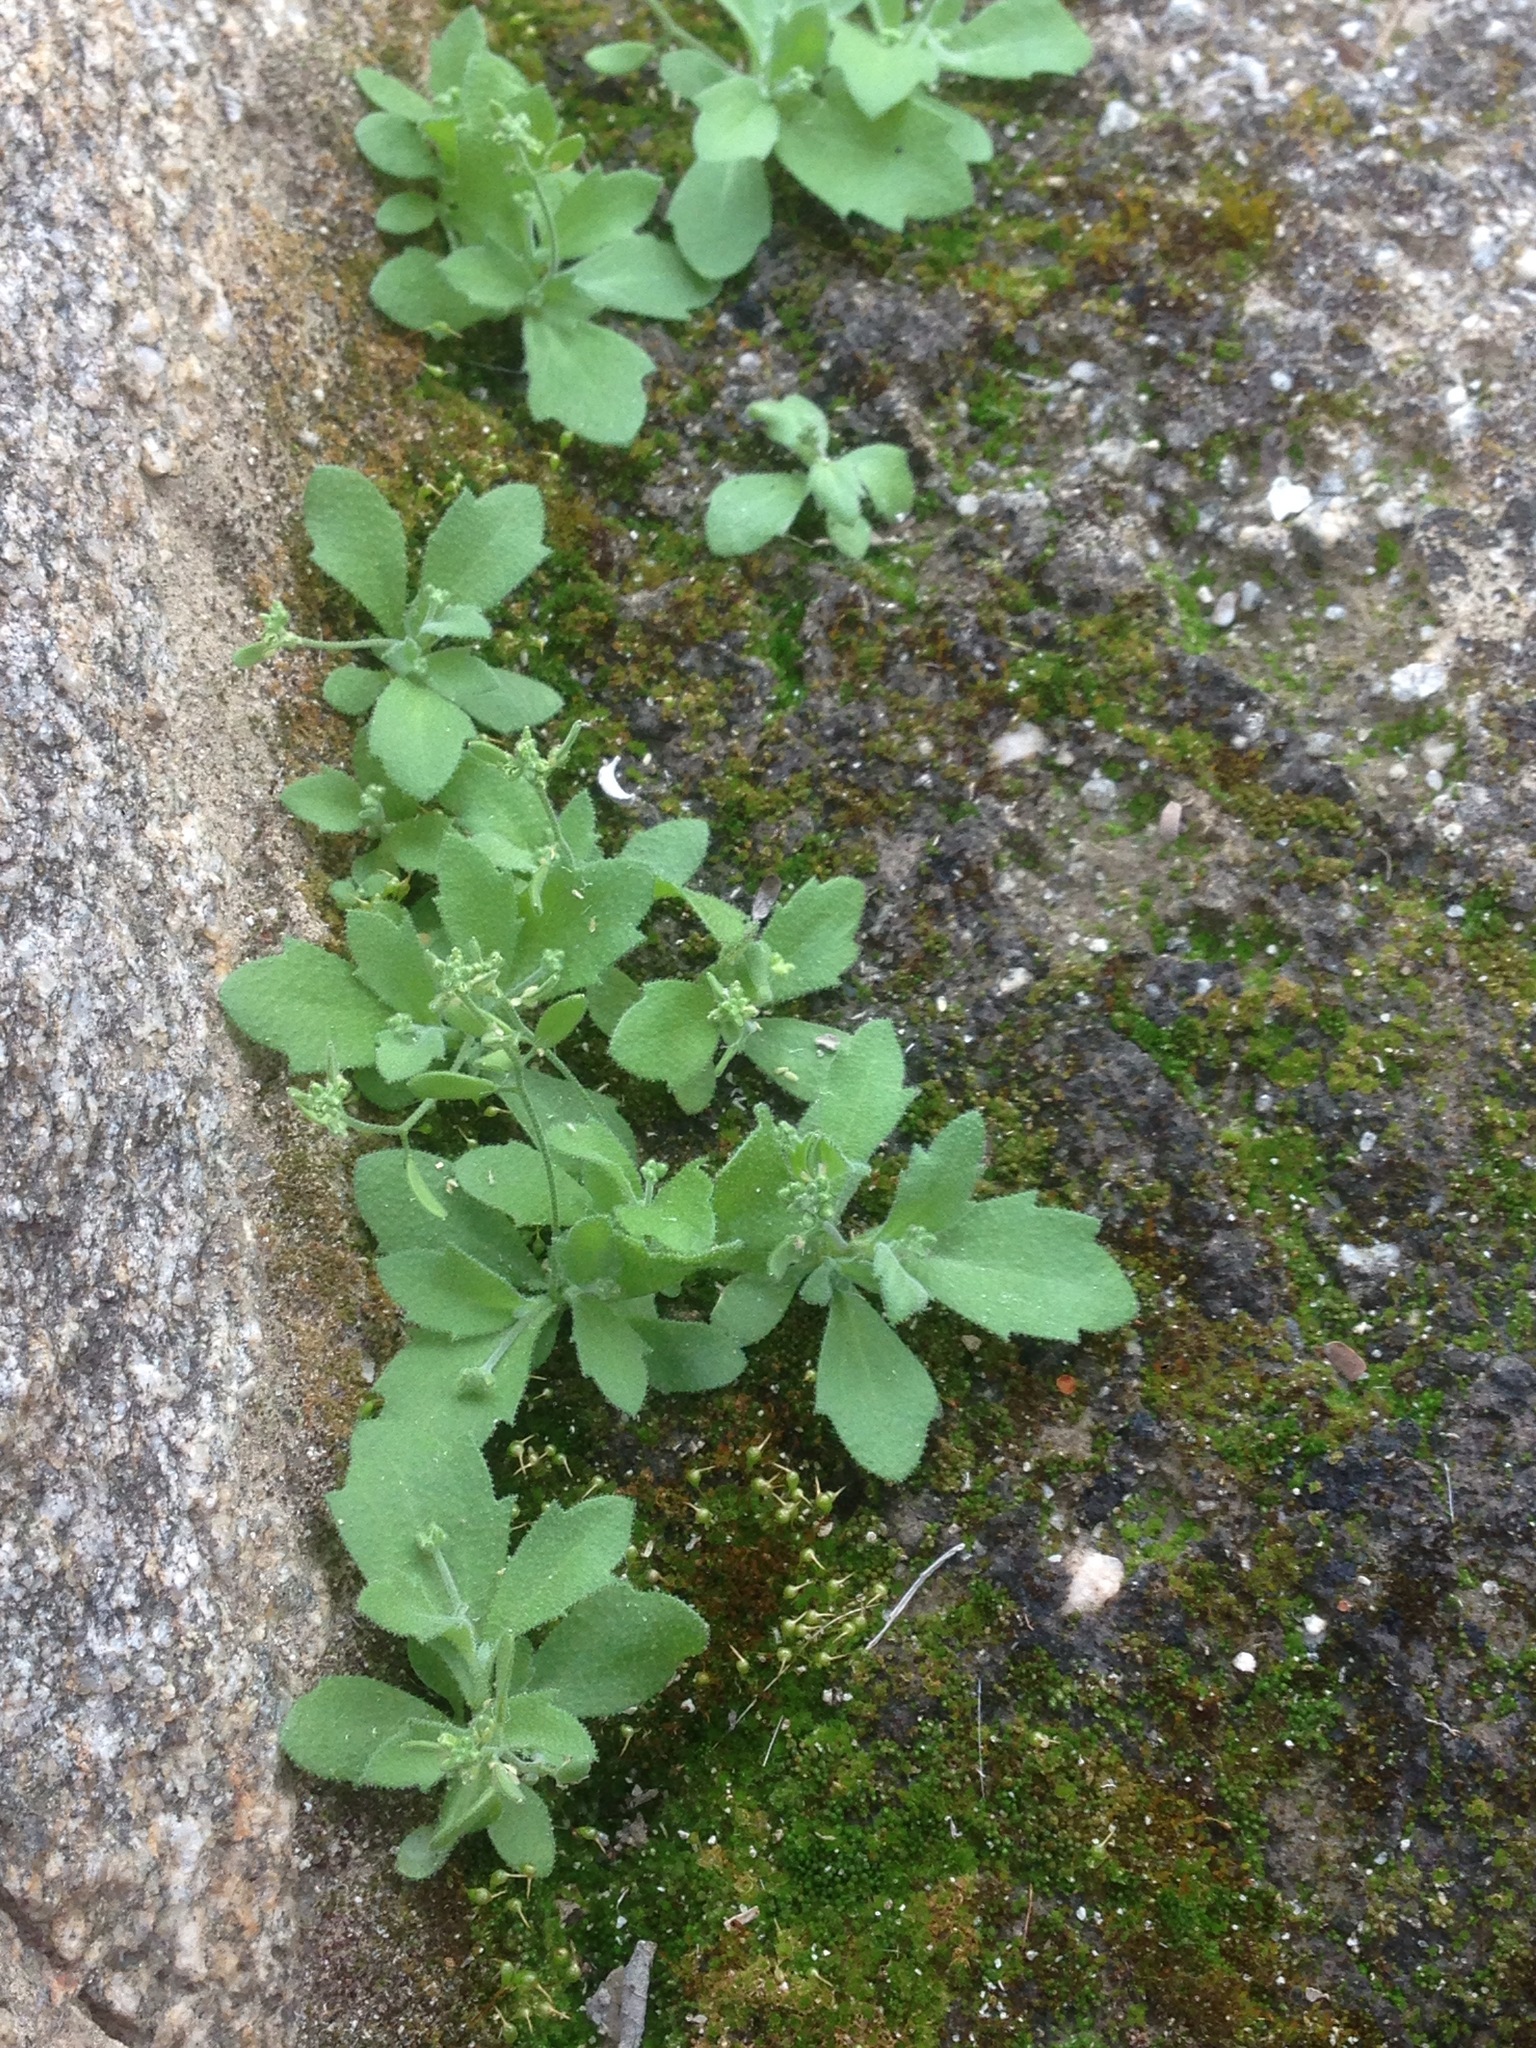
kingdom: Plantae
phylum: Tracheophyta
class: Magnoliopsida
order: Brassicales
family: Brassicaceae
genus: Tomostima
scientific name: Tomostima cuneifolia
